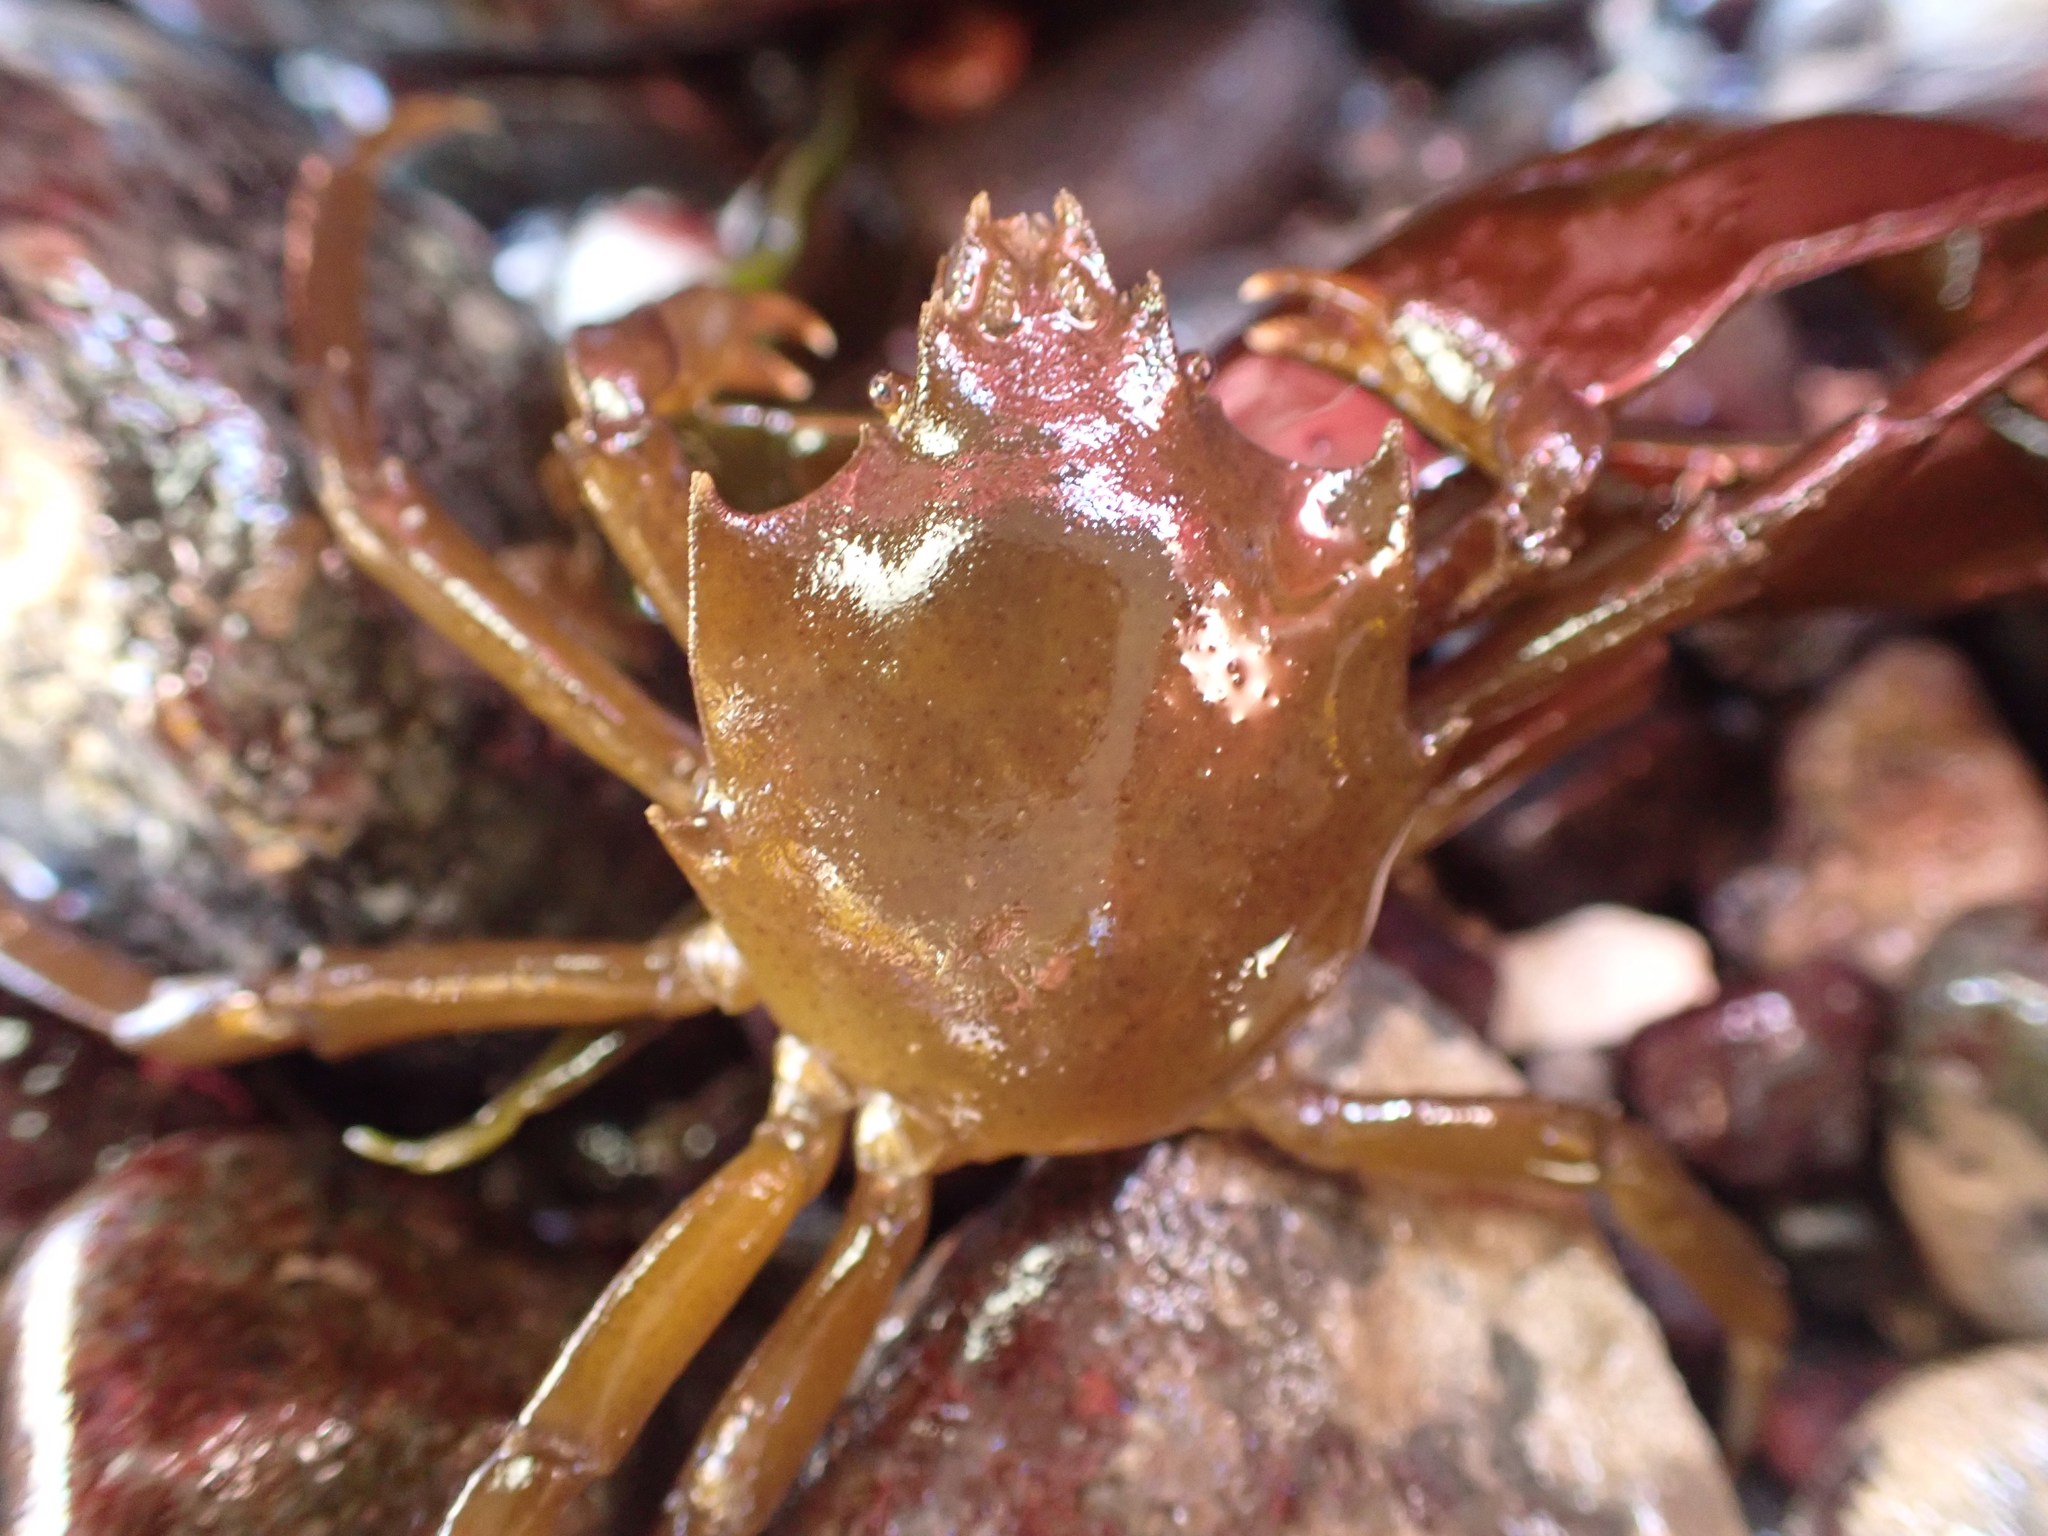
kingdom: Animalia
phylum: Arthropoda
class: Malacostraca
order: Decapoda
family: Epialtidae
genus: Pugettia
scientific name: Pugettia producta
